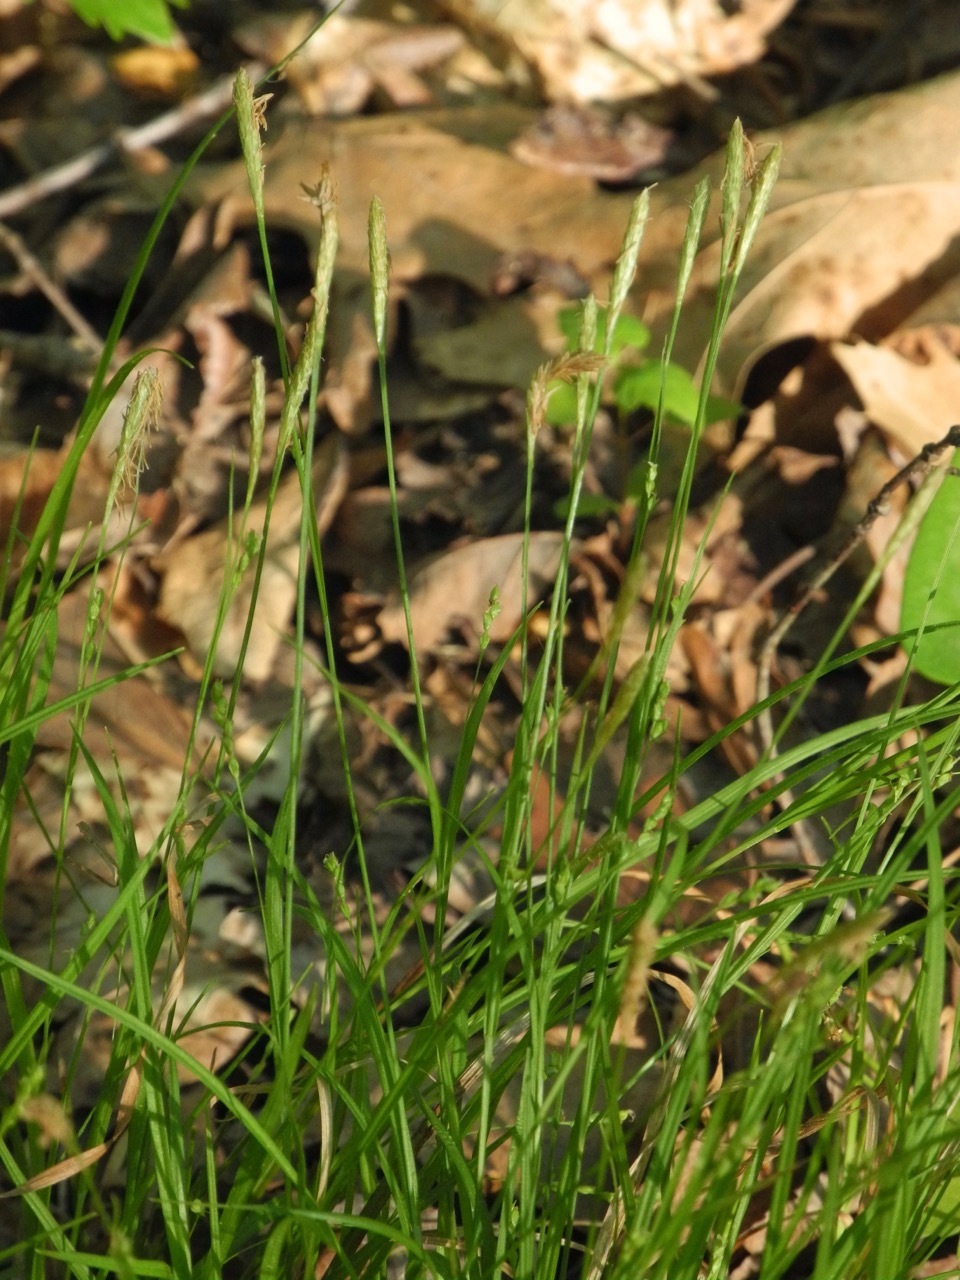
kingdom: Plantae
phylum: Tracheophyta
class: Liliopsida
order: Poales
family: Cyperaceae
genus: Carex
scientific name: Carex pensylvanica
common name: Common oak sedge
